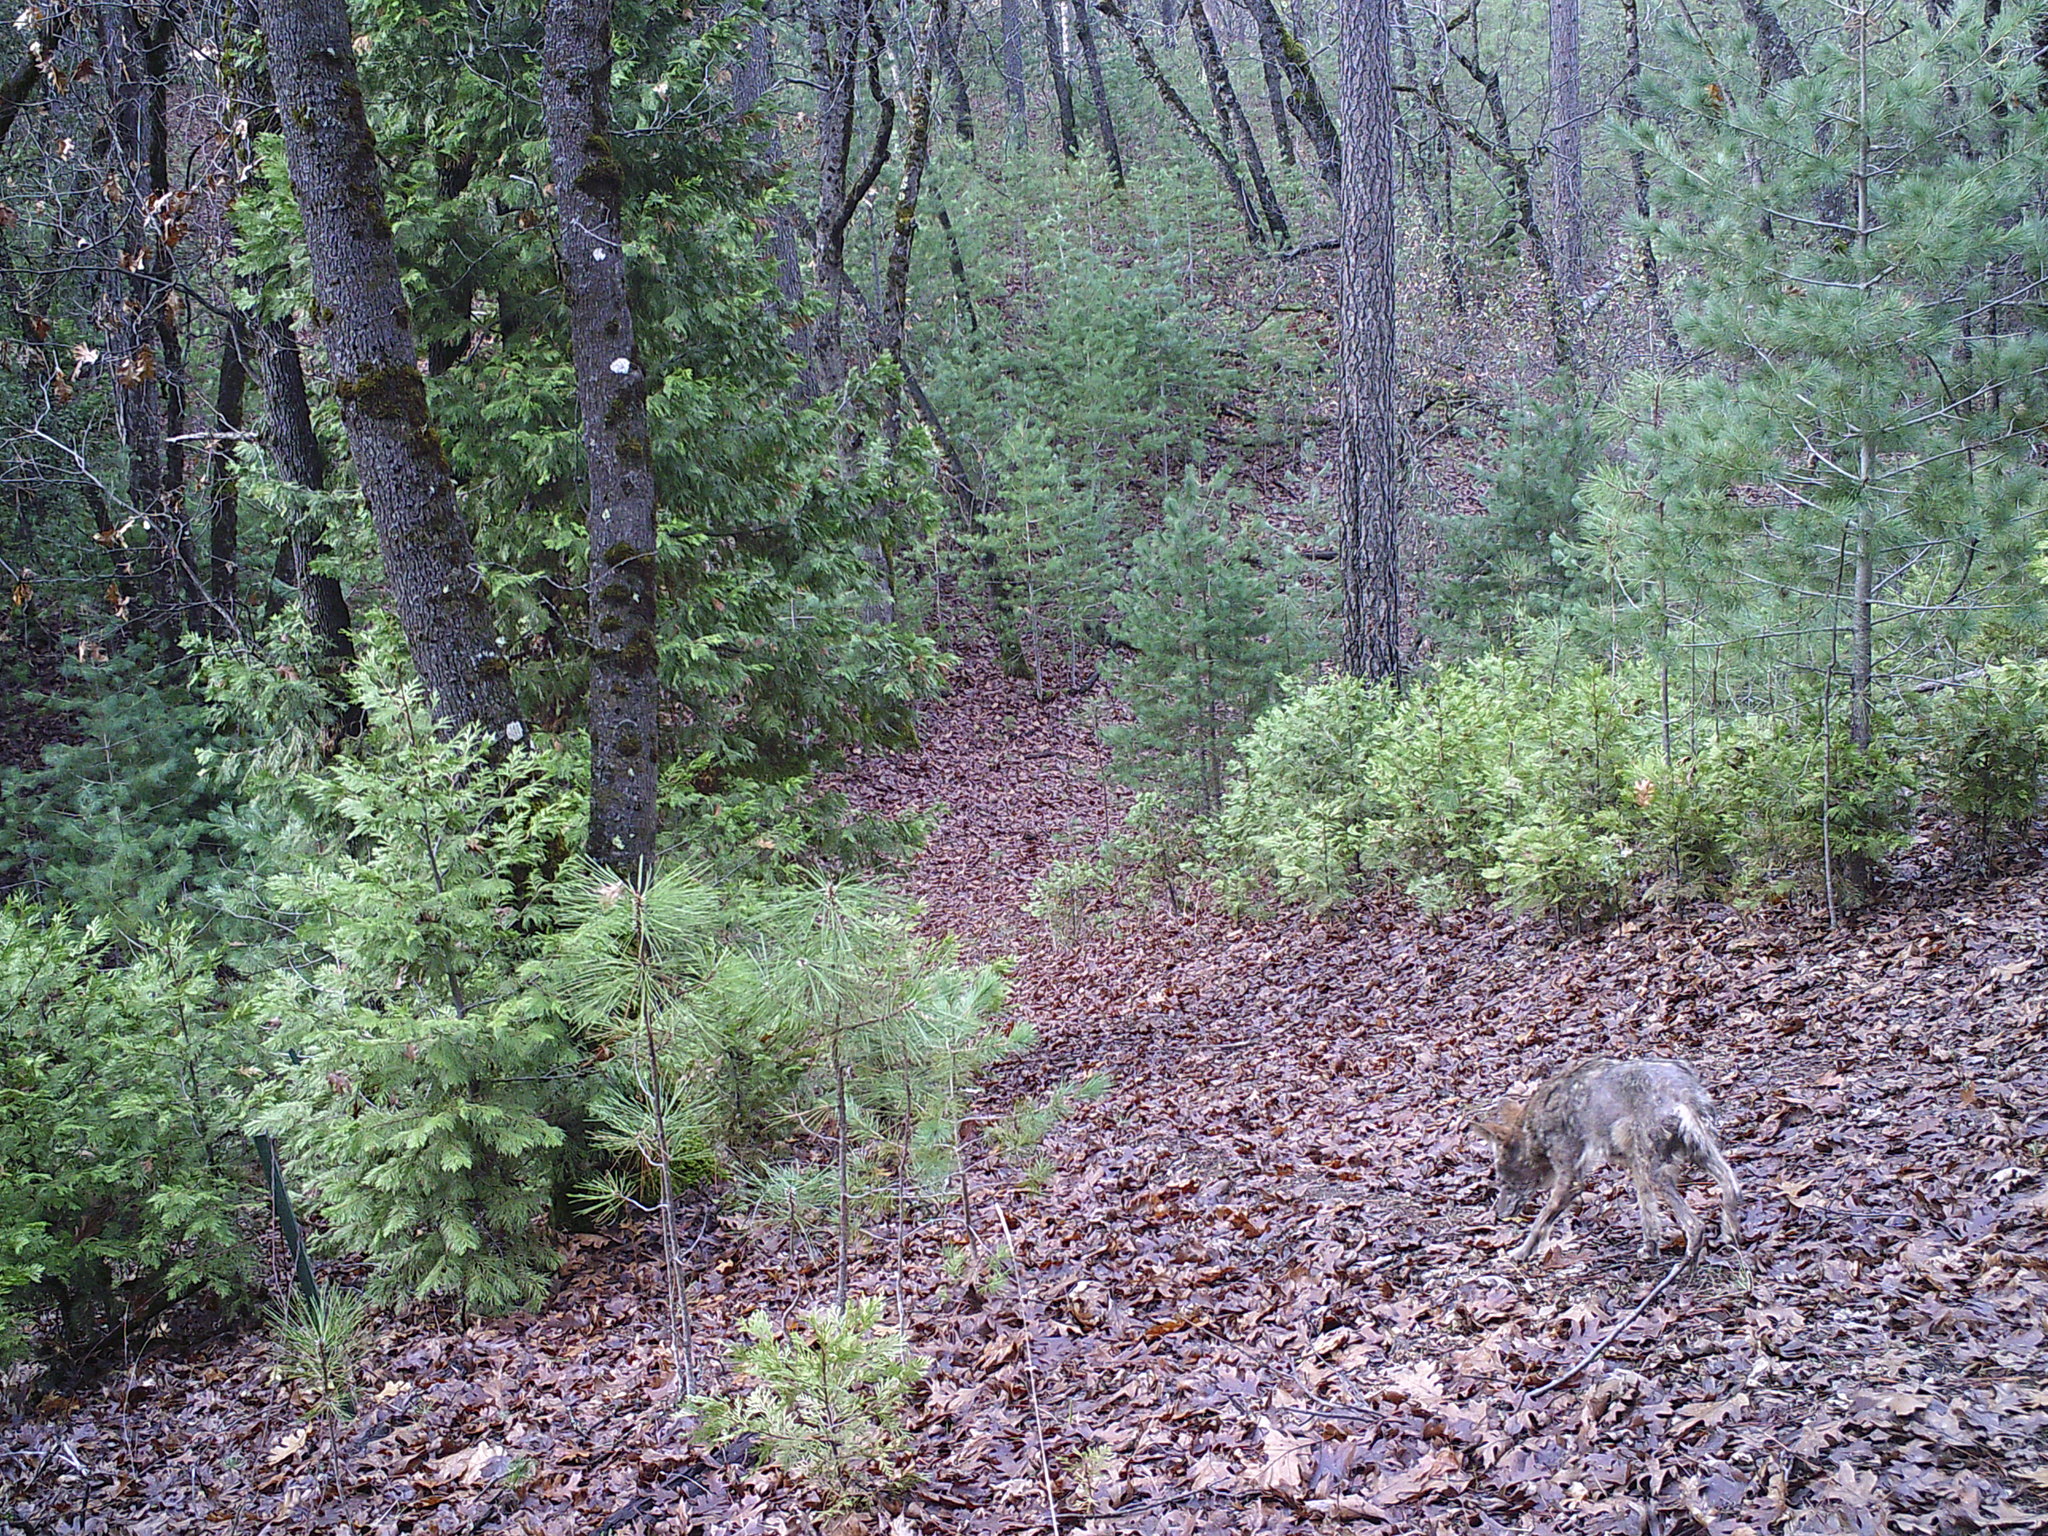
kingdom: Animalia
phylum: Chordata
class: Mammalia
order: Carnivora
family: Canidae
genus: Canis
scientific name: Canis latrans
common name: Coyote
